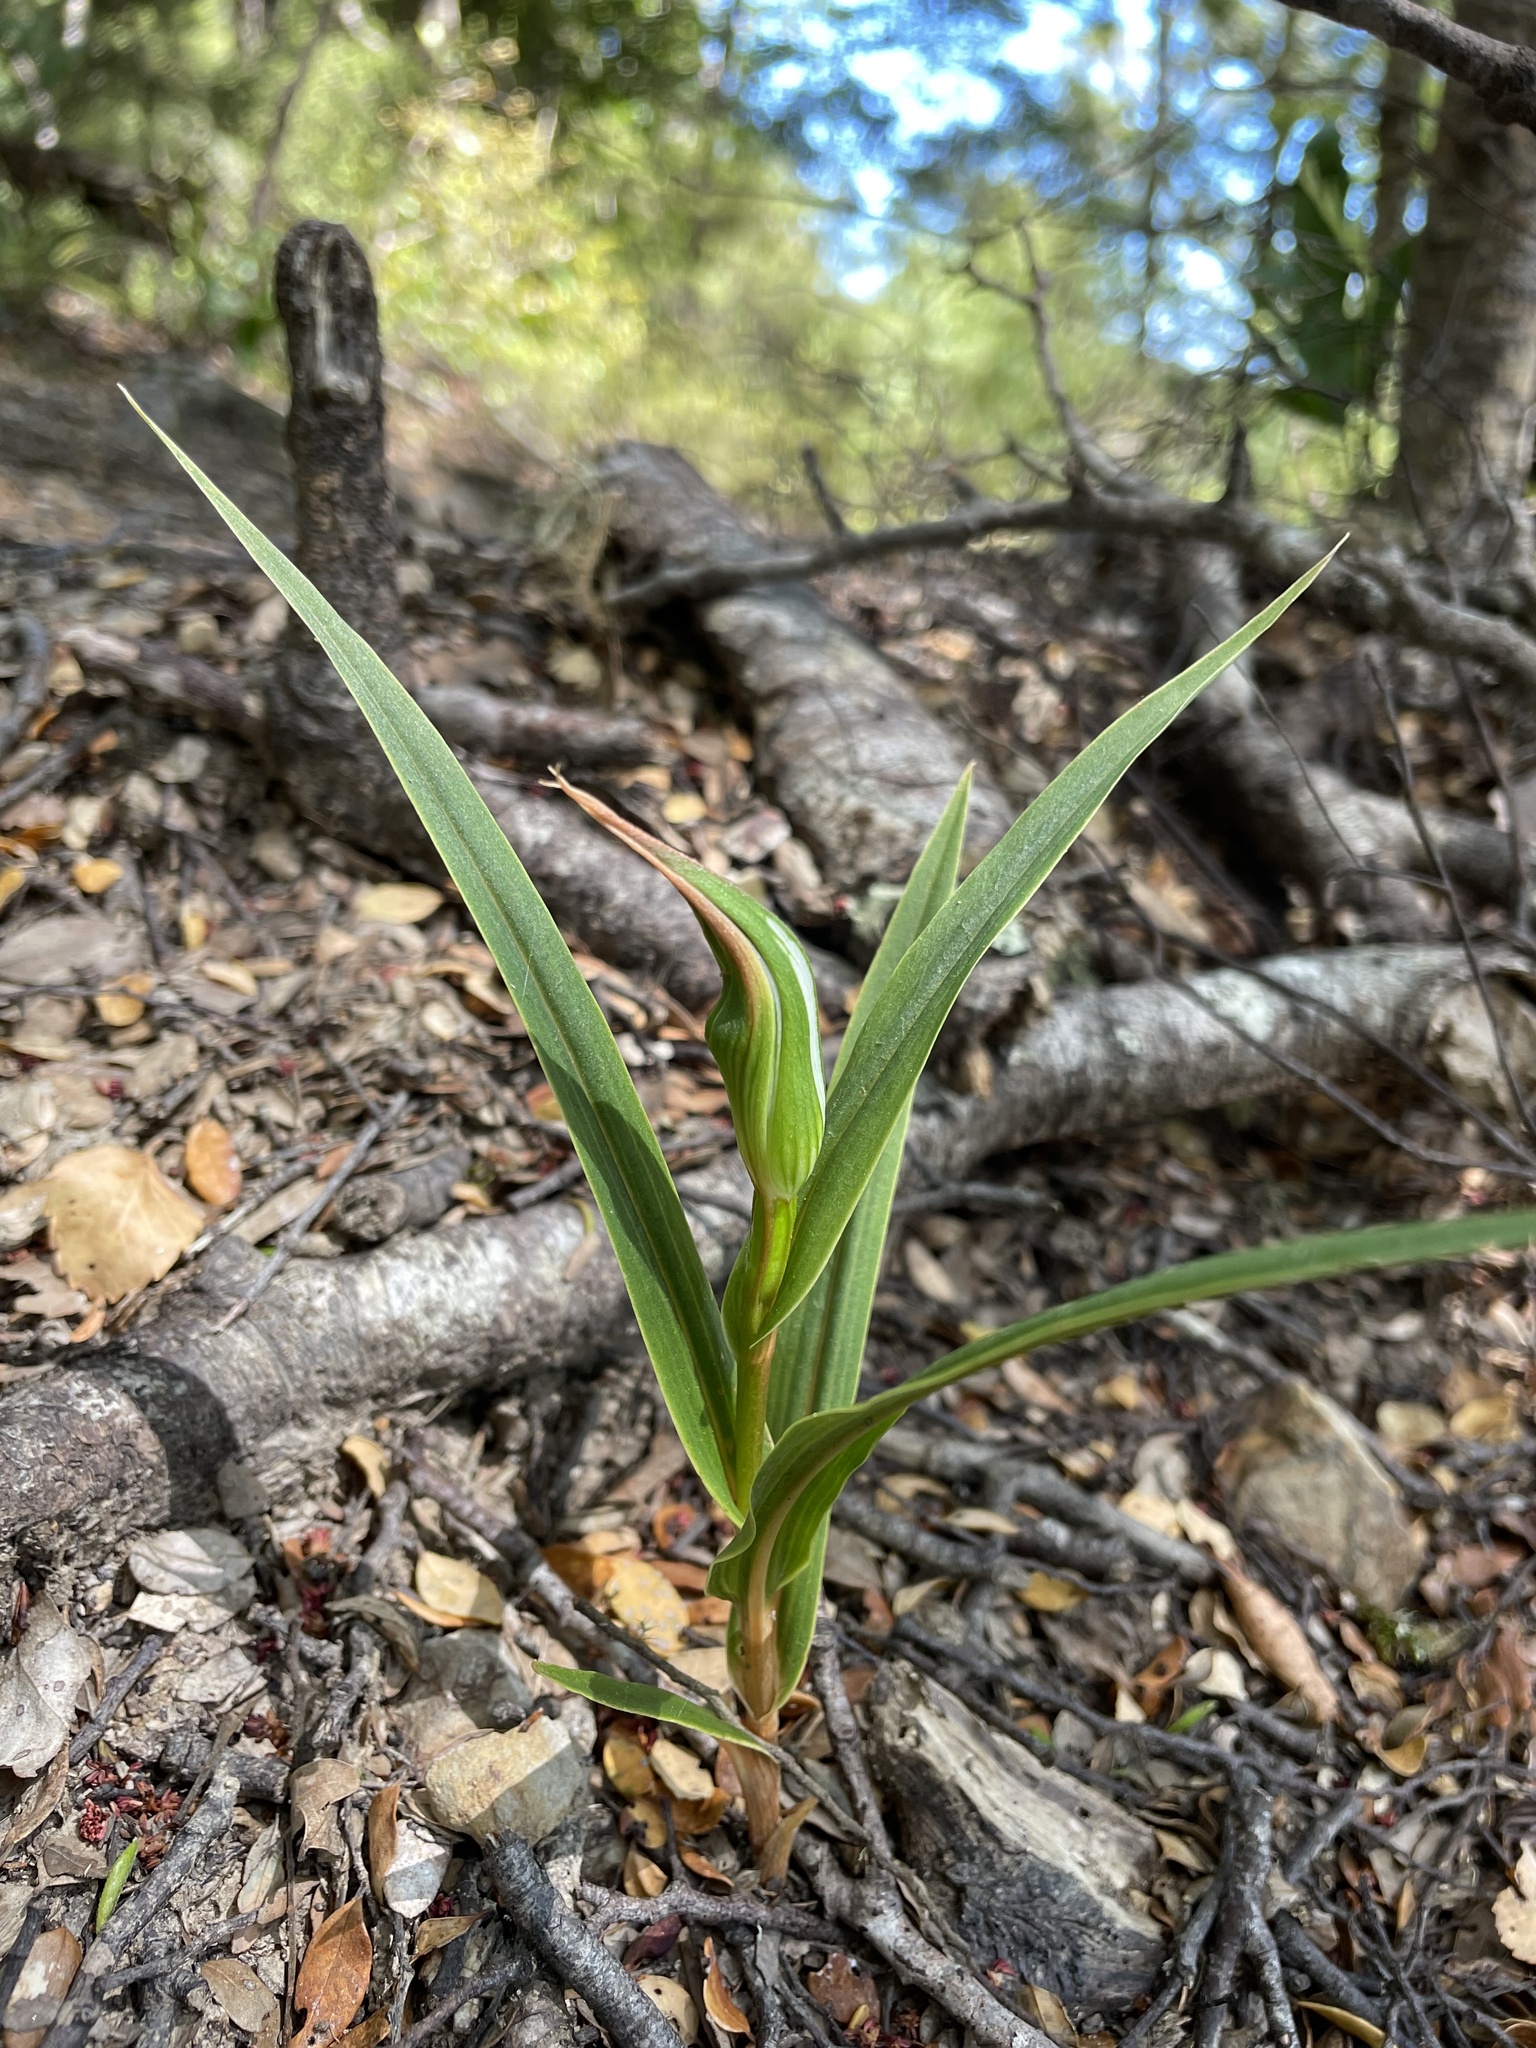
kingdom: Plantae
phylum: Tracheophyta
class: Liliopsida
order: Asparagales
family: Orchidaceae
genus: Pterostylis
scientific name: Pterostylis cardiostigma
